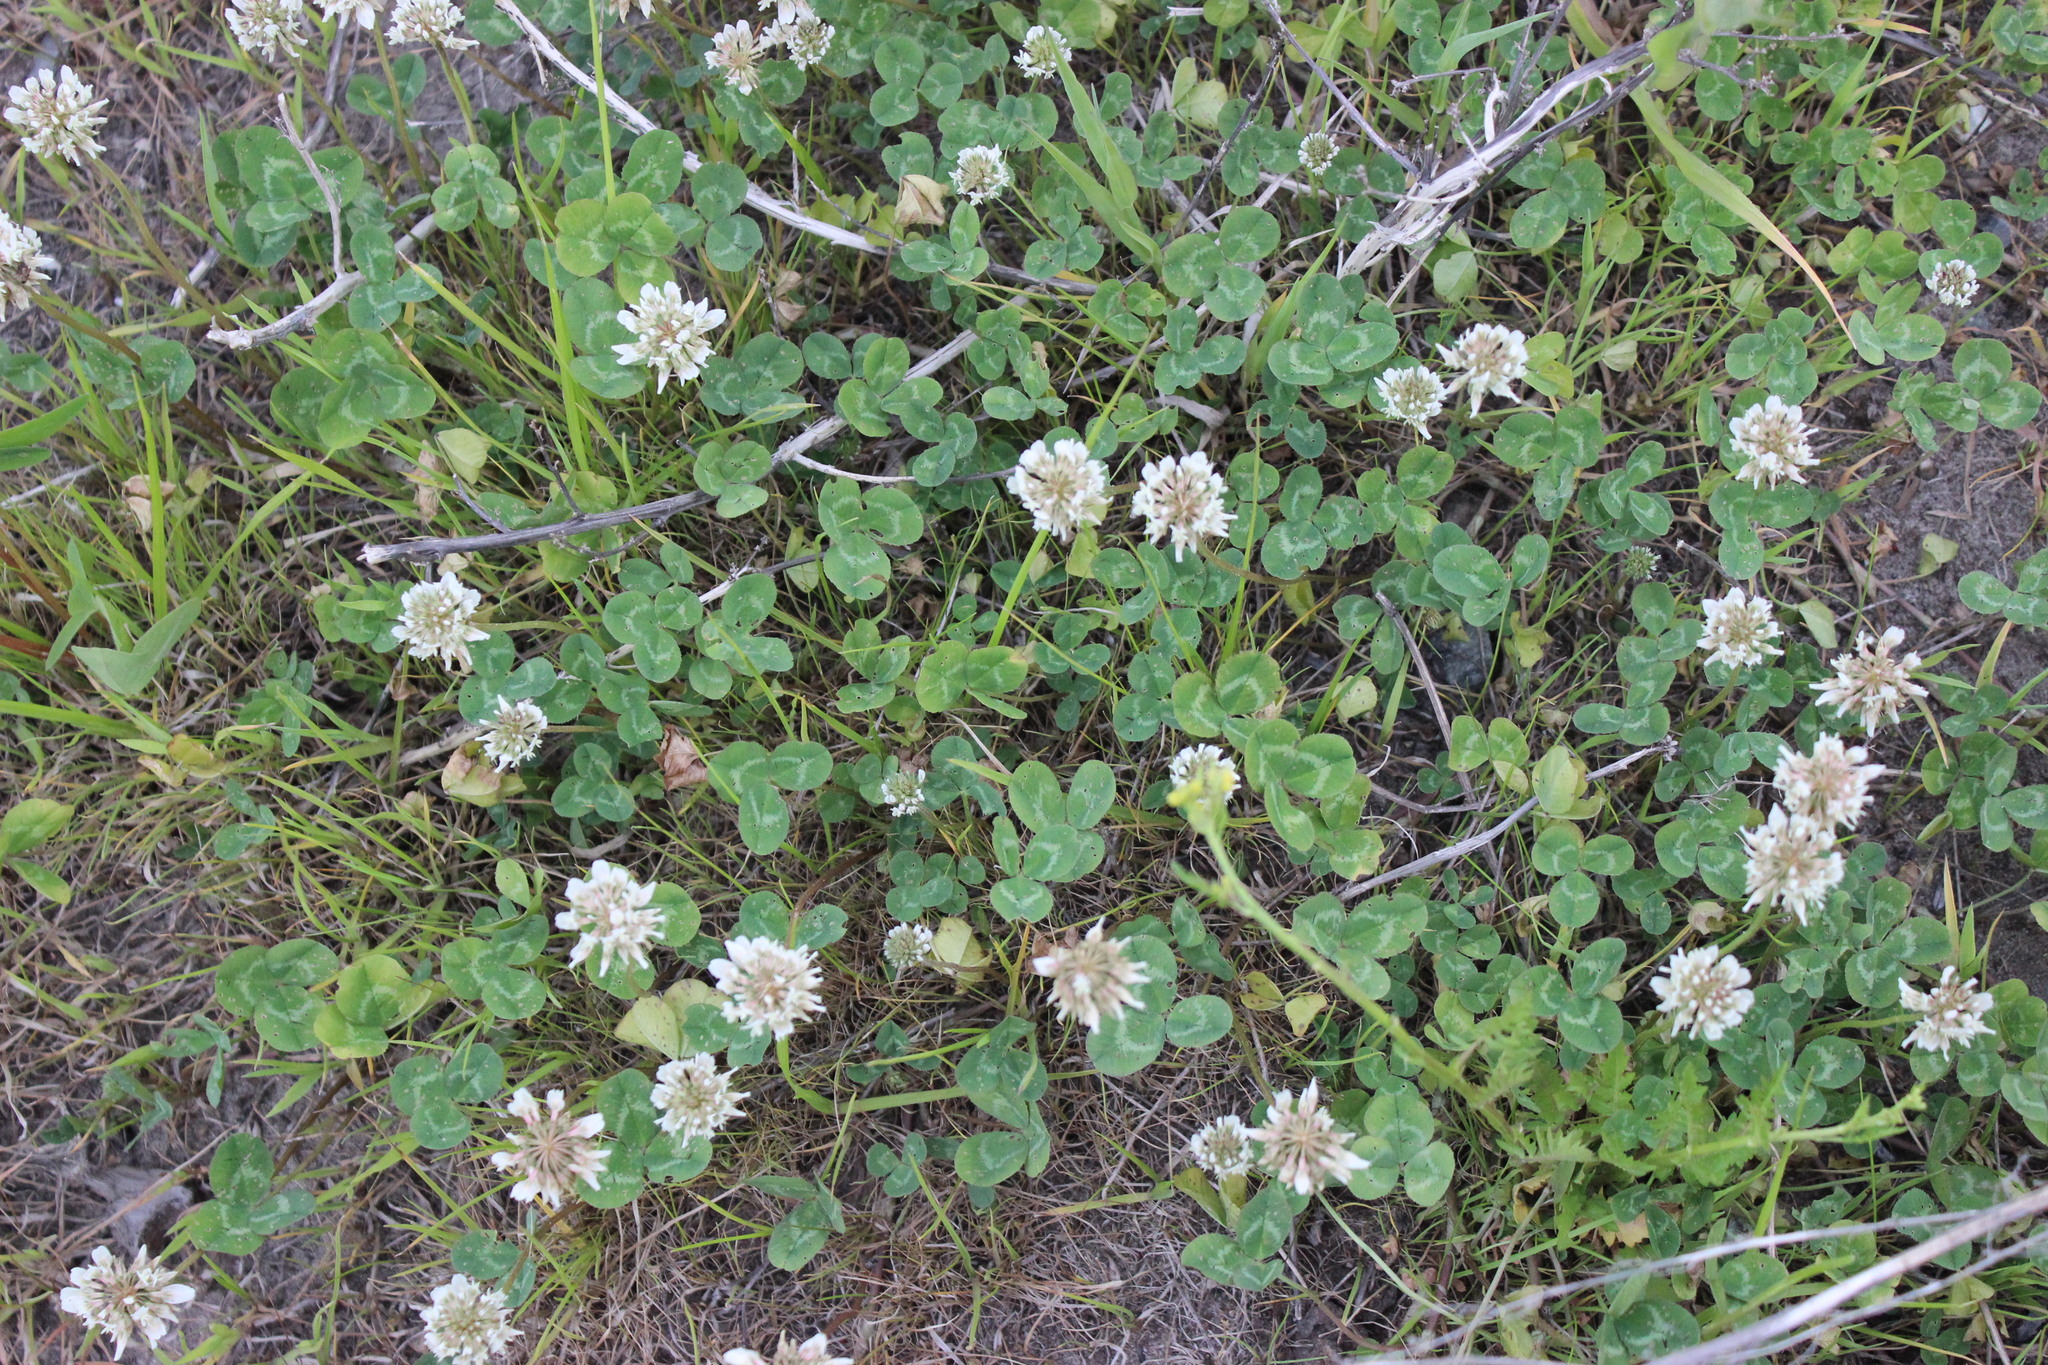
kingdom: Plantae
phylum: Tracheophyta
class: Magnoliopsida
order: Fabales
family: Fabaceae
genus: Trifolium
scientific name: Trifolium repens
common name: White clover
